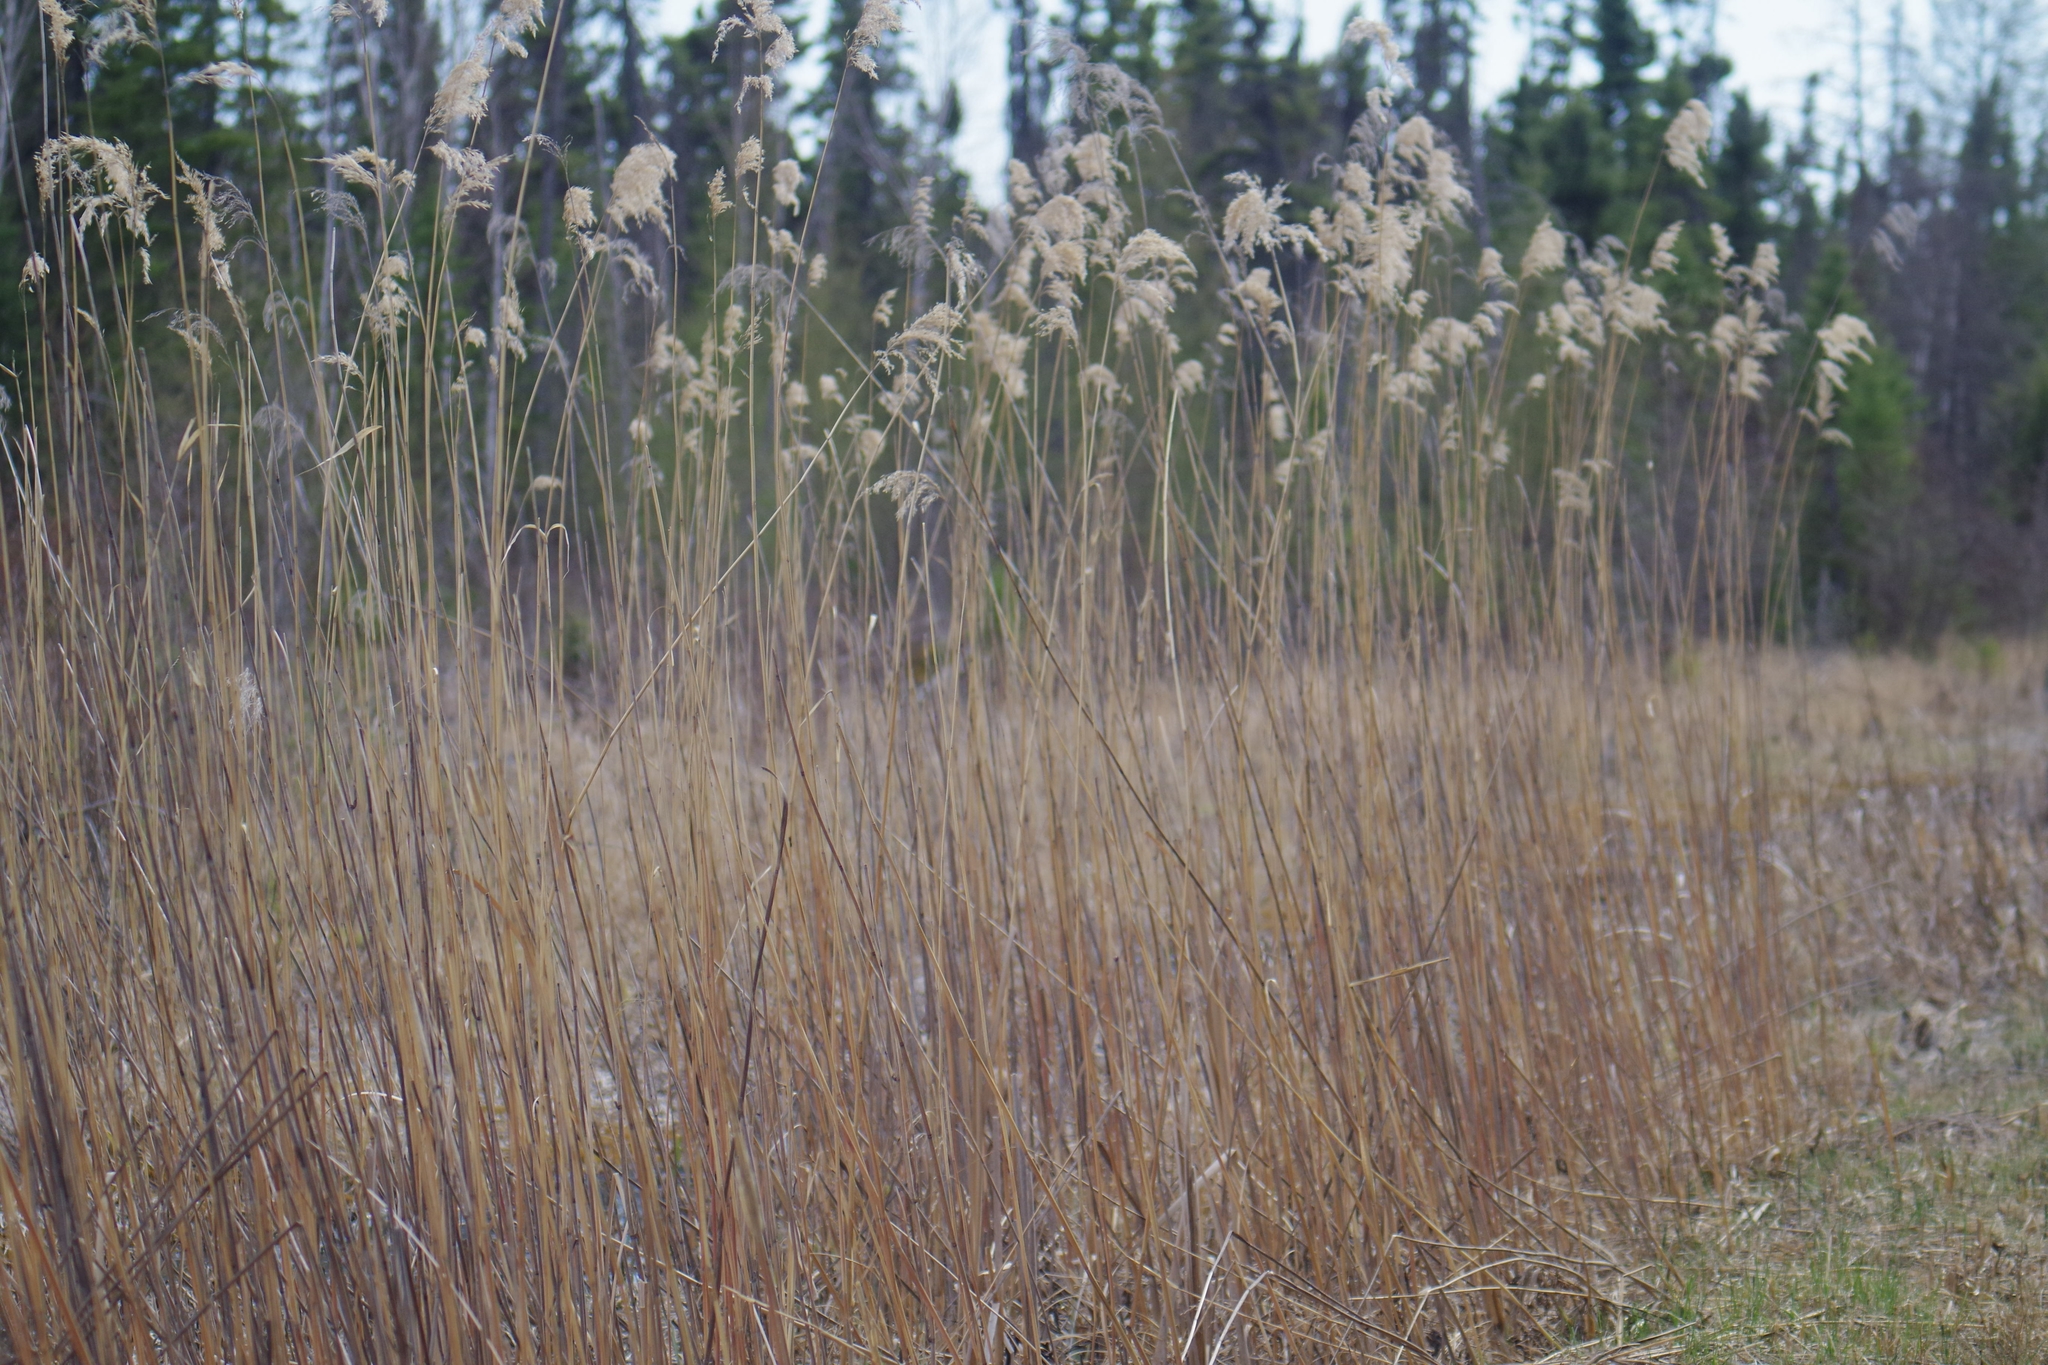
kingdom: Plantae
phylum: Tracheophyta
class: Liliopsida
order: Poales
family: Poaceae
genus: Phragmites
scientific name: Phragmites australis
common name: Common reed
